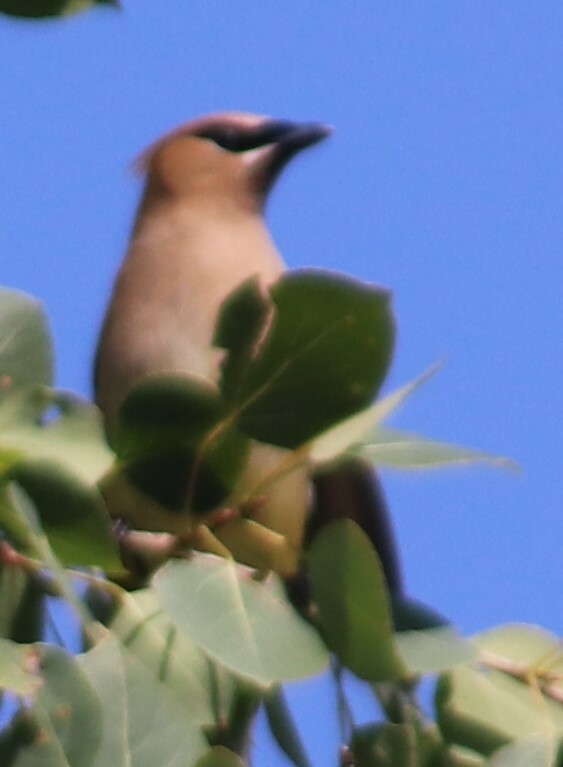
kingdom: Animalia
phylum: Chordata
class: Aves
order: Passeriformes
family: Bombycillidae
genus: Bombycilla
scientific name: Bombycilla cedrorum
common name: Cedar waxwing
